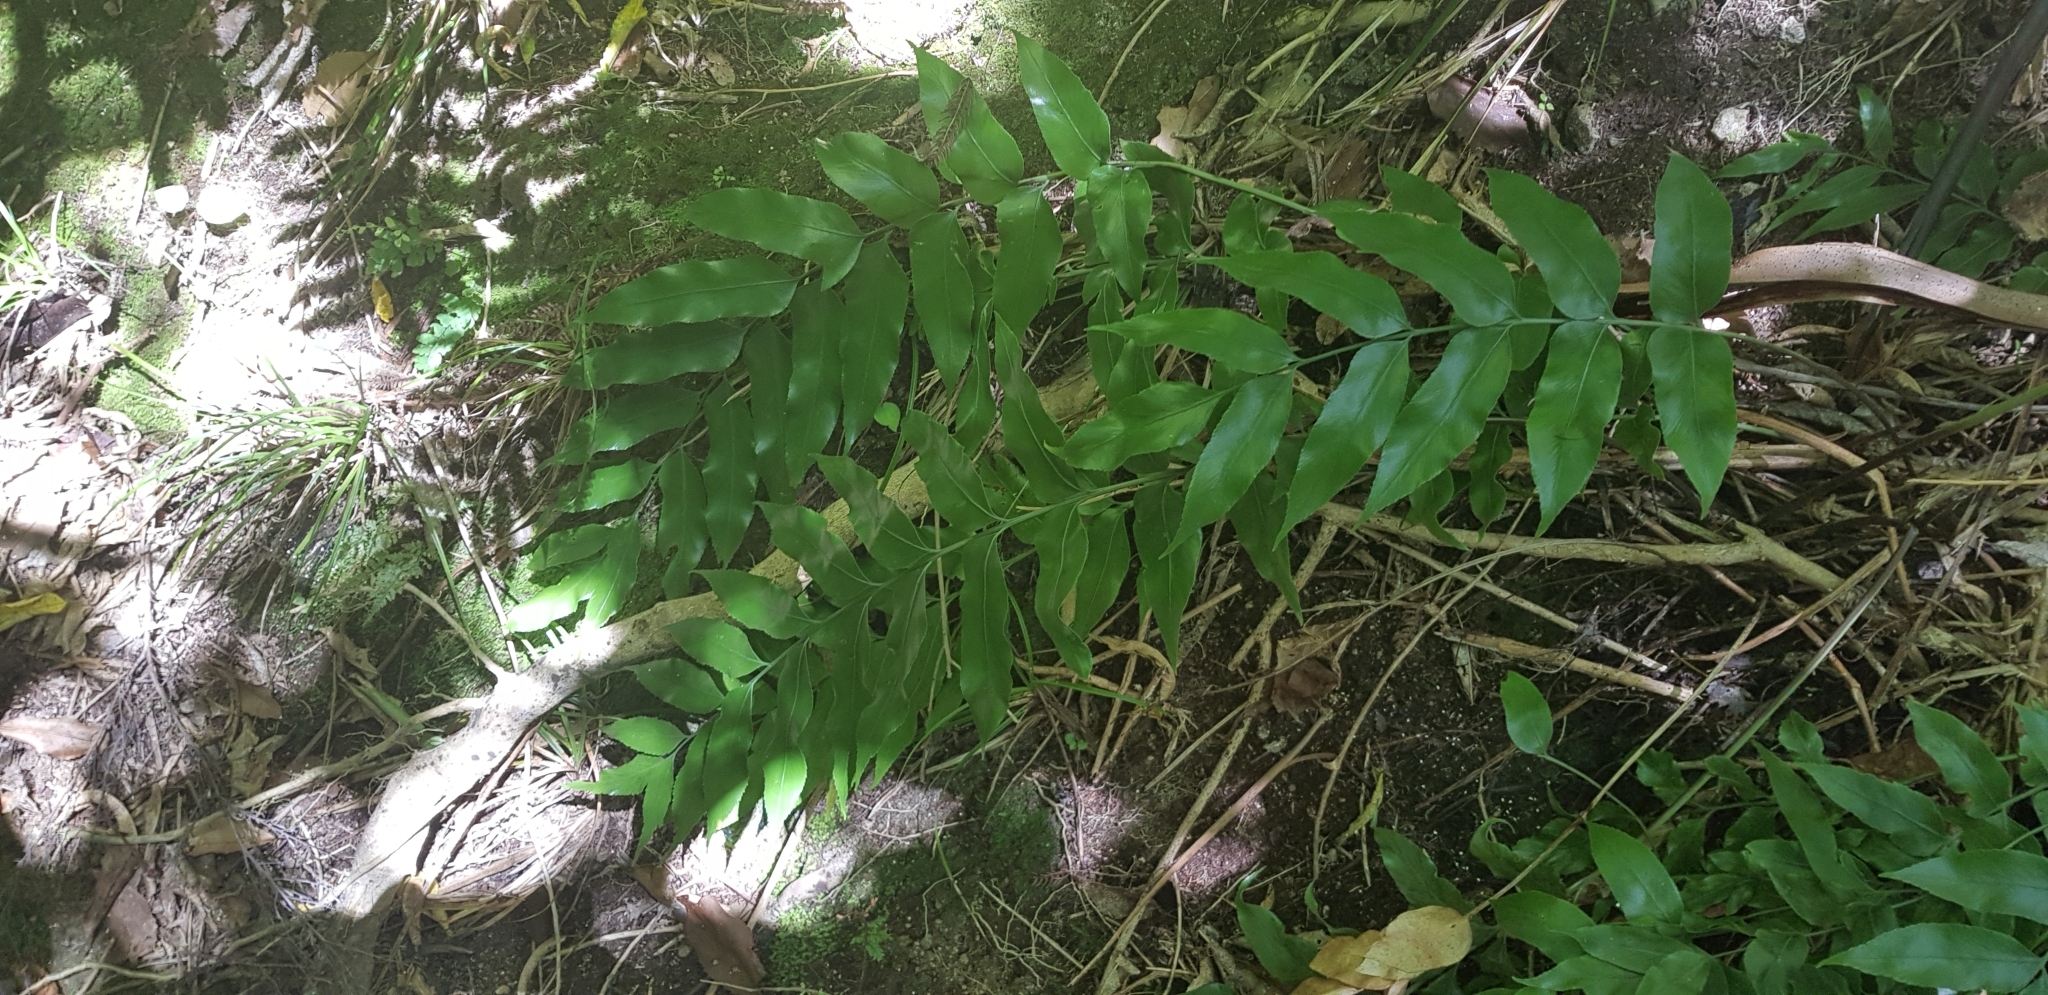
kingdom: Plantae
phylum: Tracheophyta
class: Polypodiopsida
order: Polypodiales
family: Aspleniaceae
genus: Asplenium
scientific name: Asplenium oblongifolium
